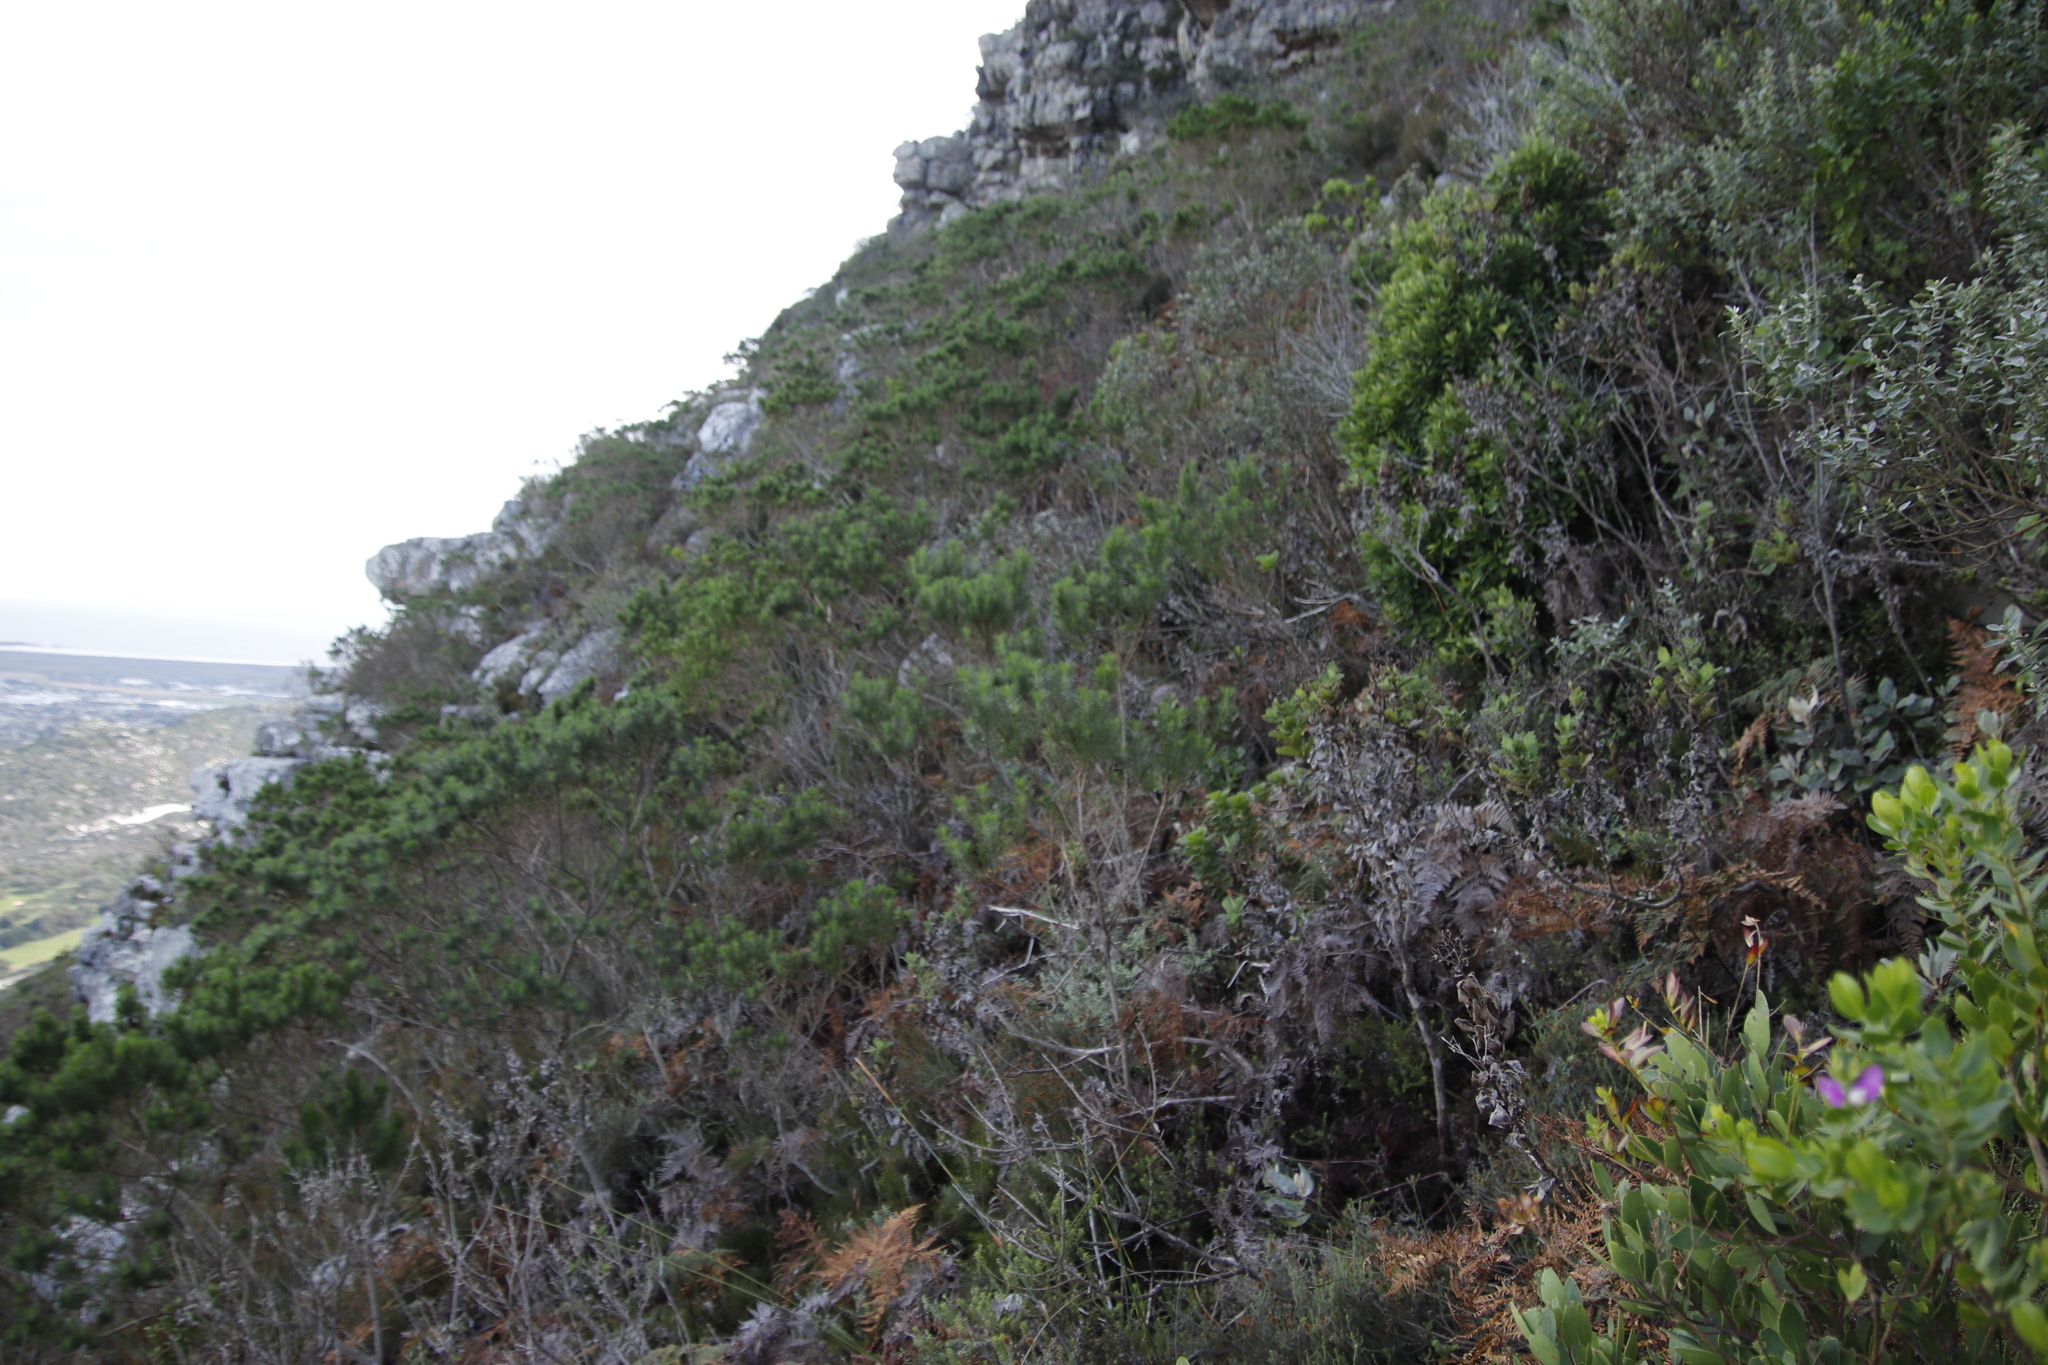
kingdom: Plantae
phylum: Tracheophyta
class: Magnoliopsida
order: Fabales
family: Fabaceae
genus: Psoralea
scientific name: Psoralea pinnata
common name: African scurfpea
